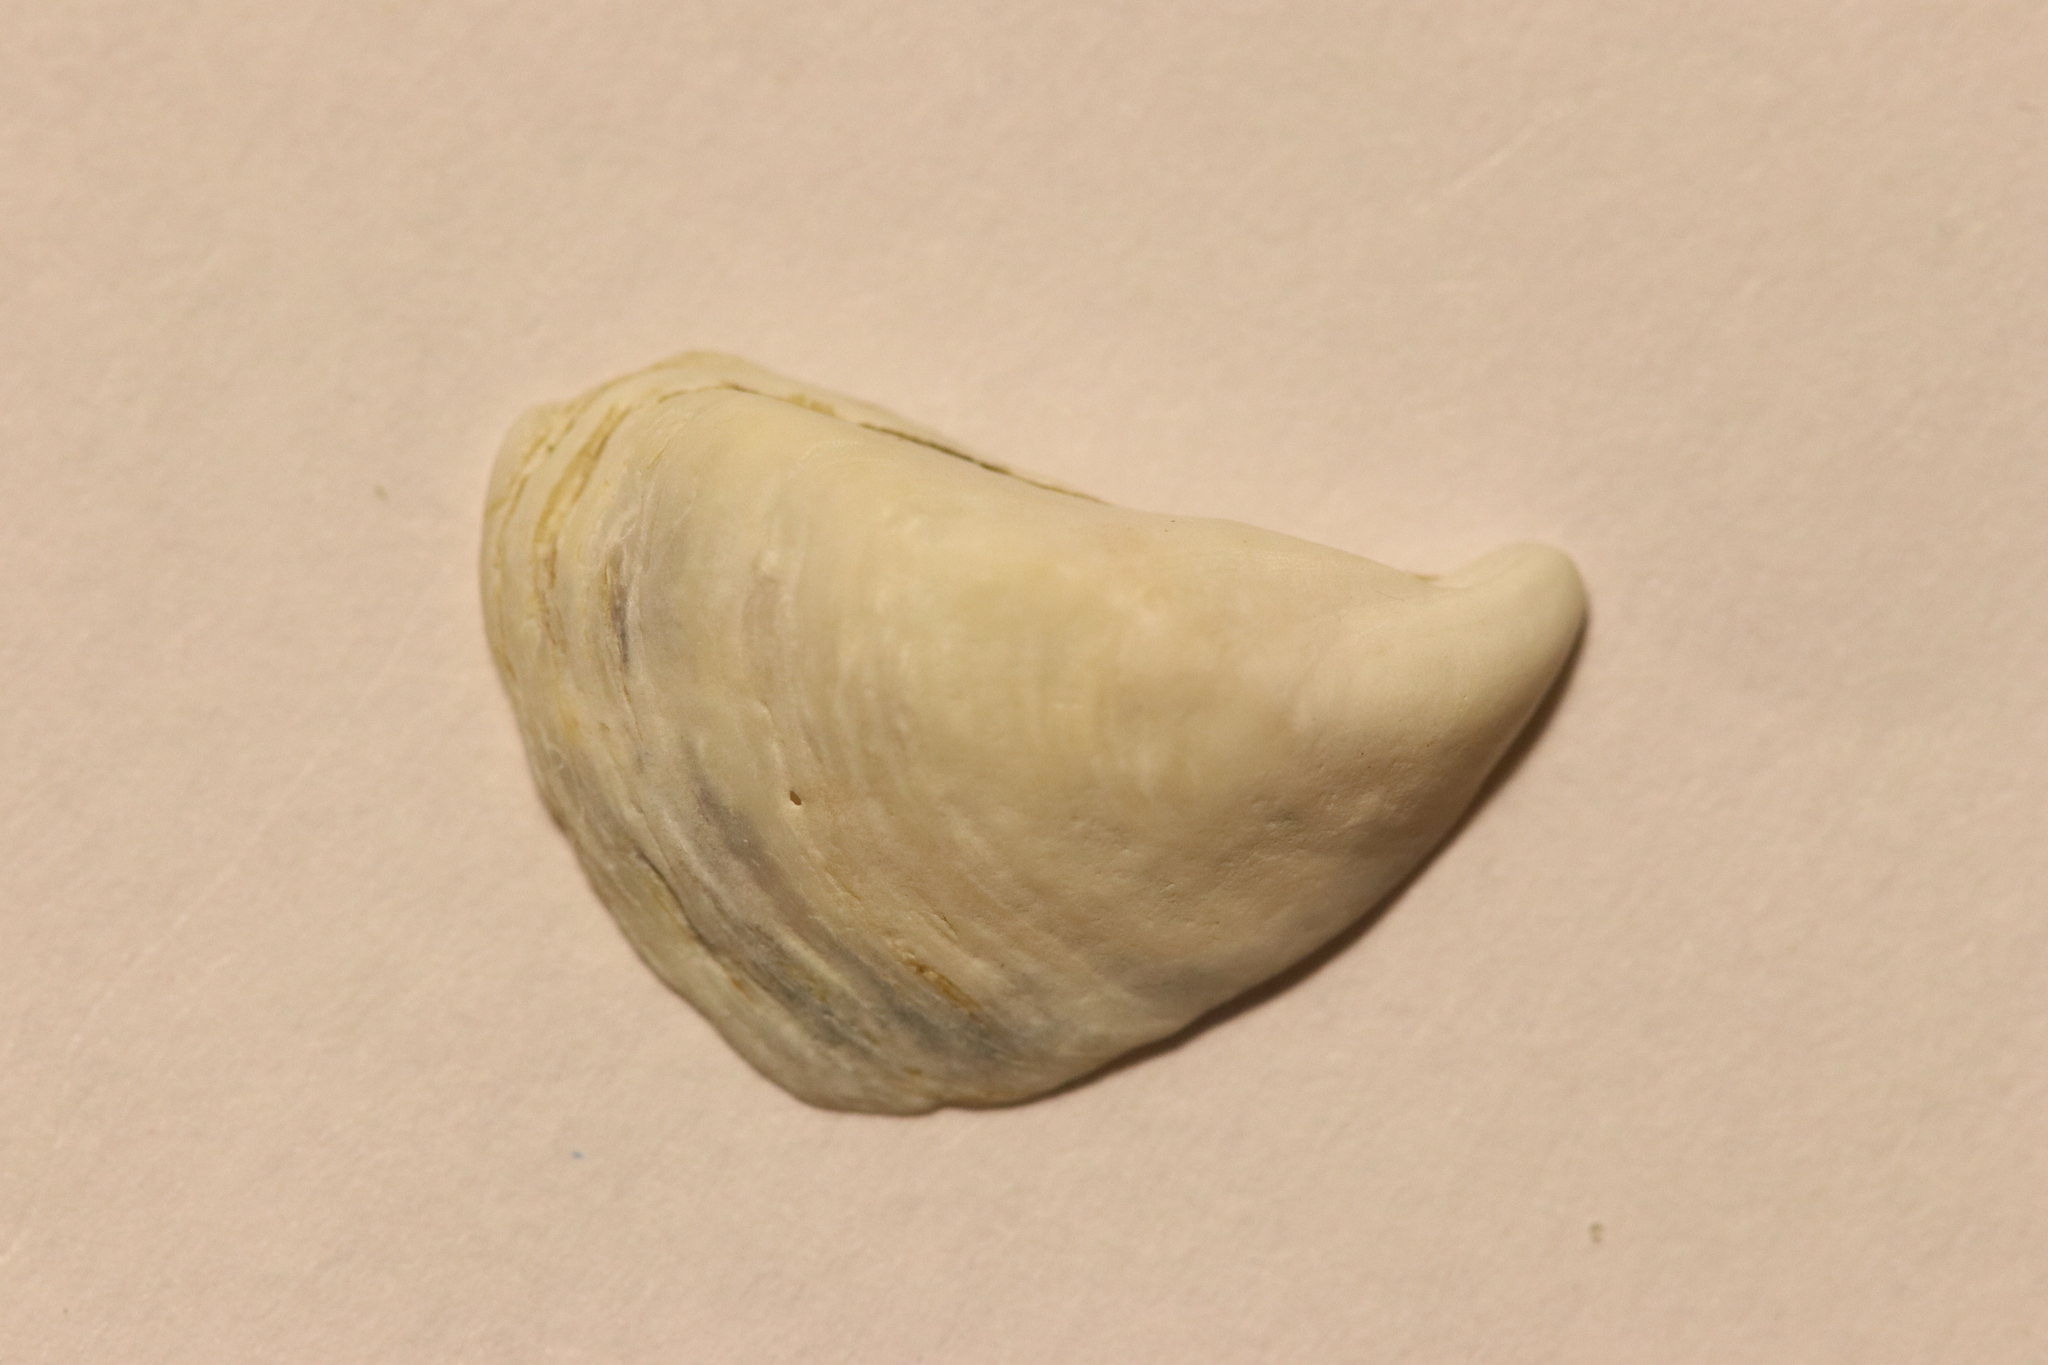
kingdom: Animalia
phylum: Mollusca
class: Bivalvia
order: Myida
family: Dreissenidae
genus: Dreissena
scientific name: Dreissena bugensis
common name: Quagga mussel
